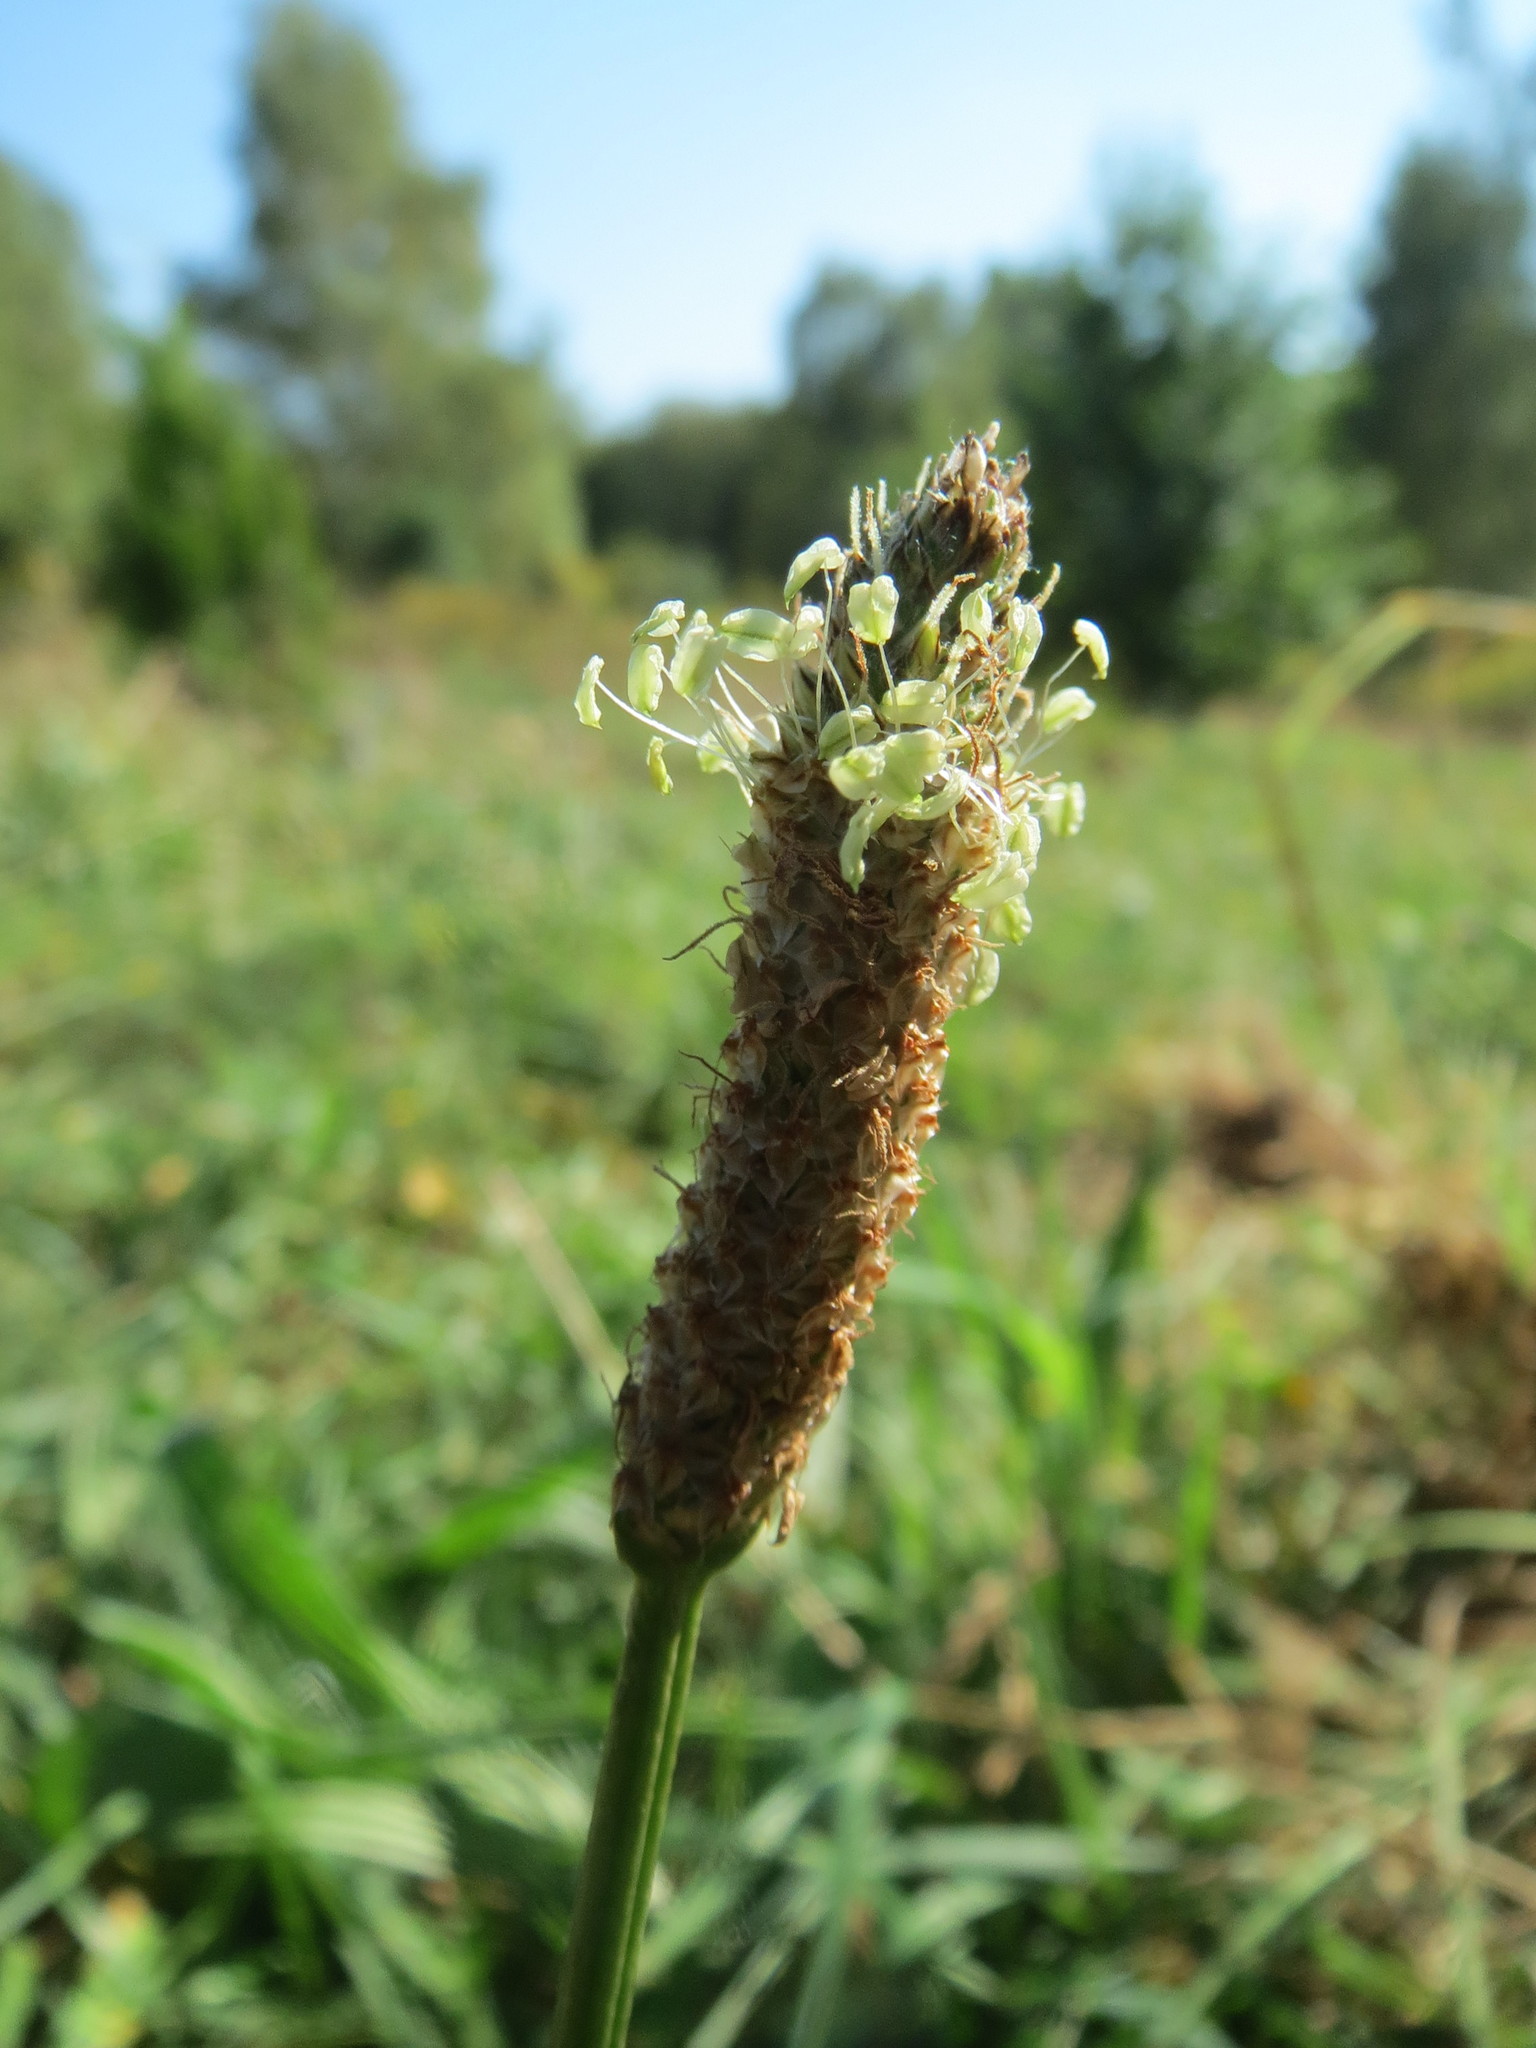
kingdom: Plantae
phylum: Tracheophyta
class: Magnoliopsida
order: Lamiales
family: Plantaginaceae
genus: Plantago
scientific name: Plantago lanceolata
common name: Ribwort plantain
